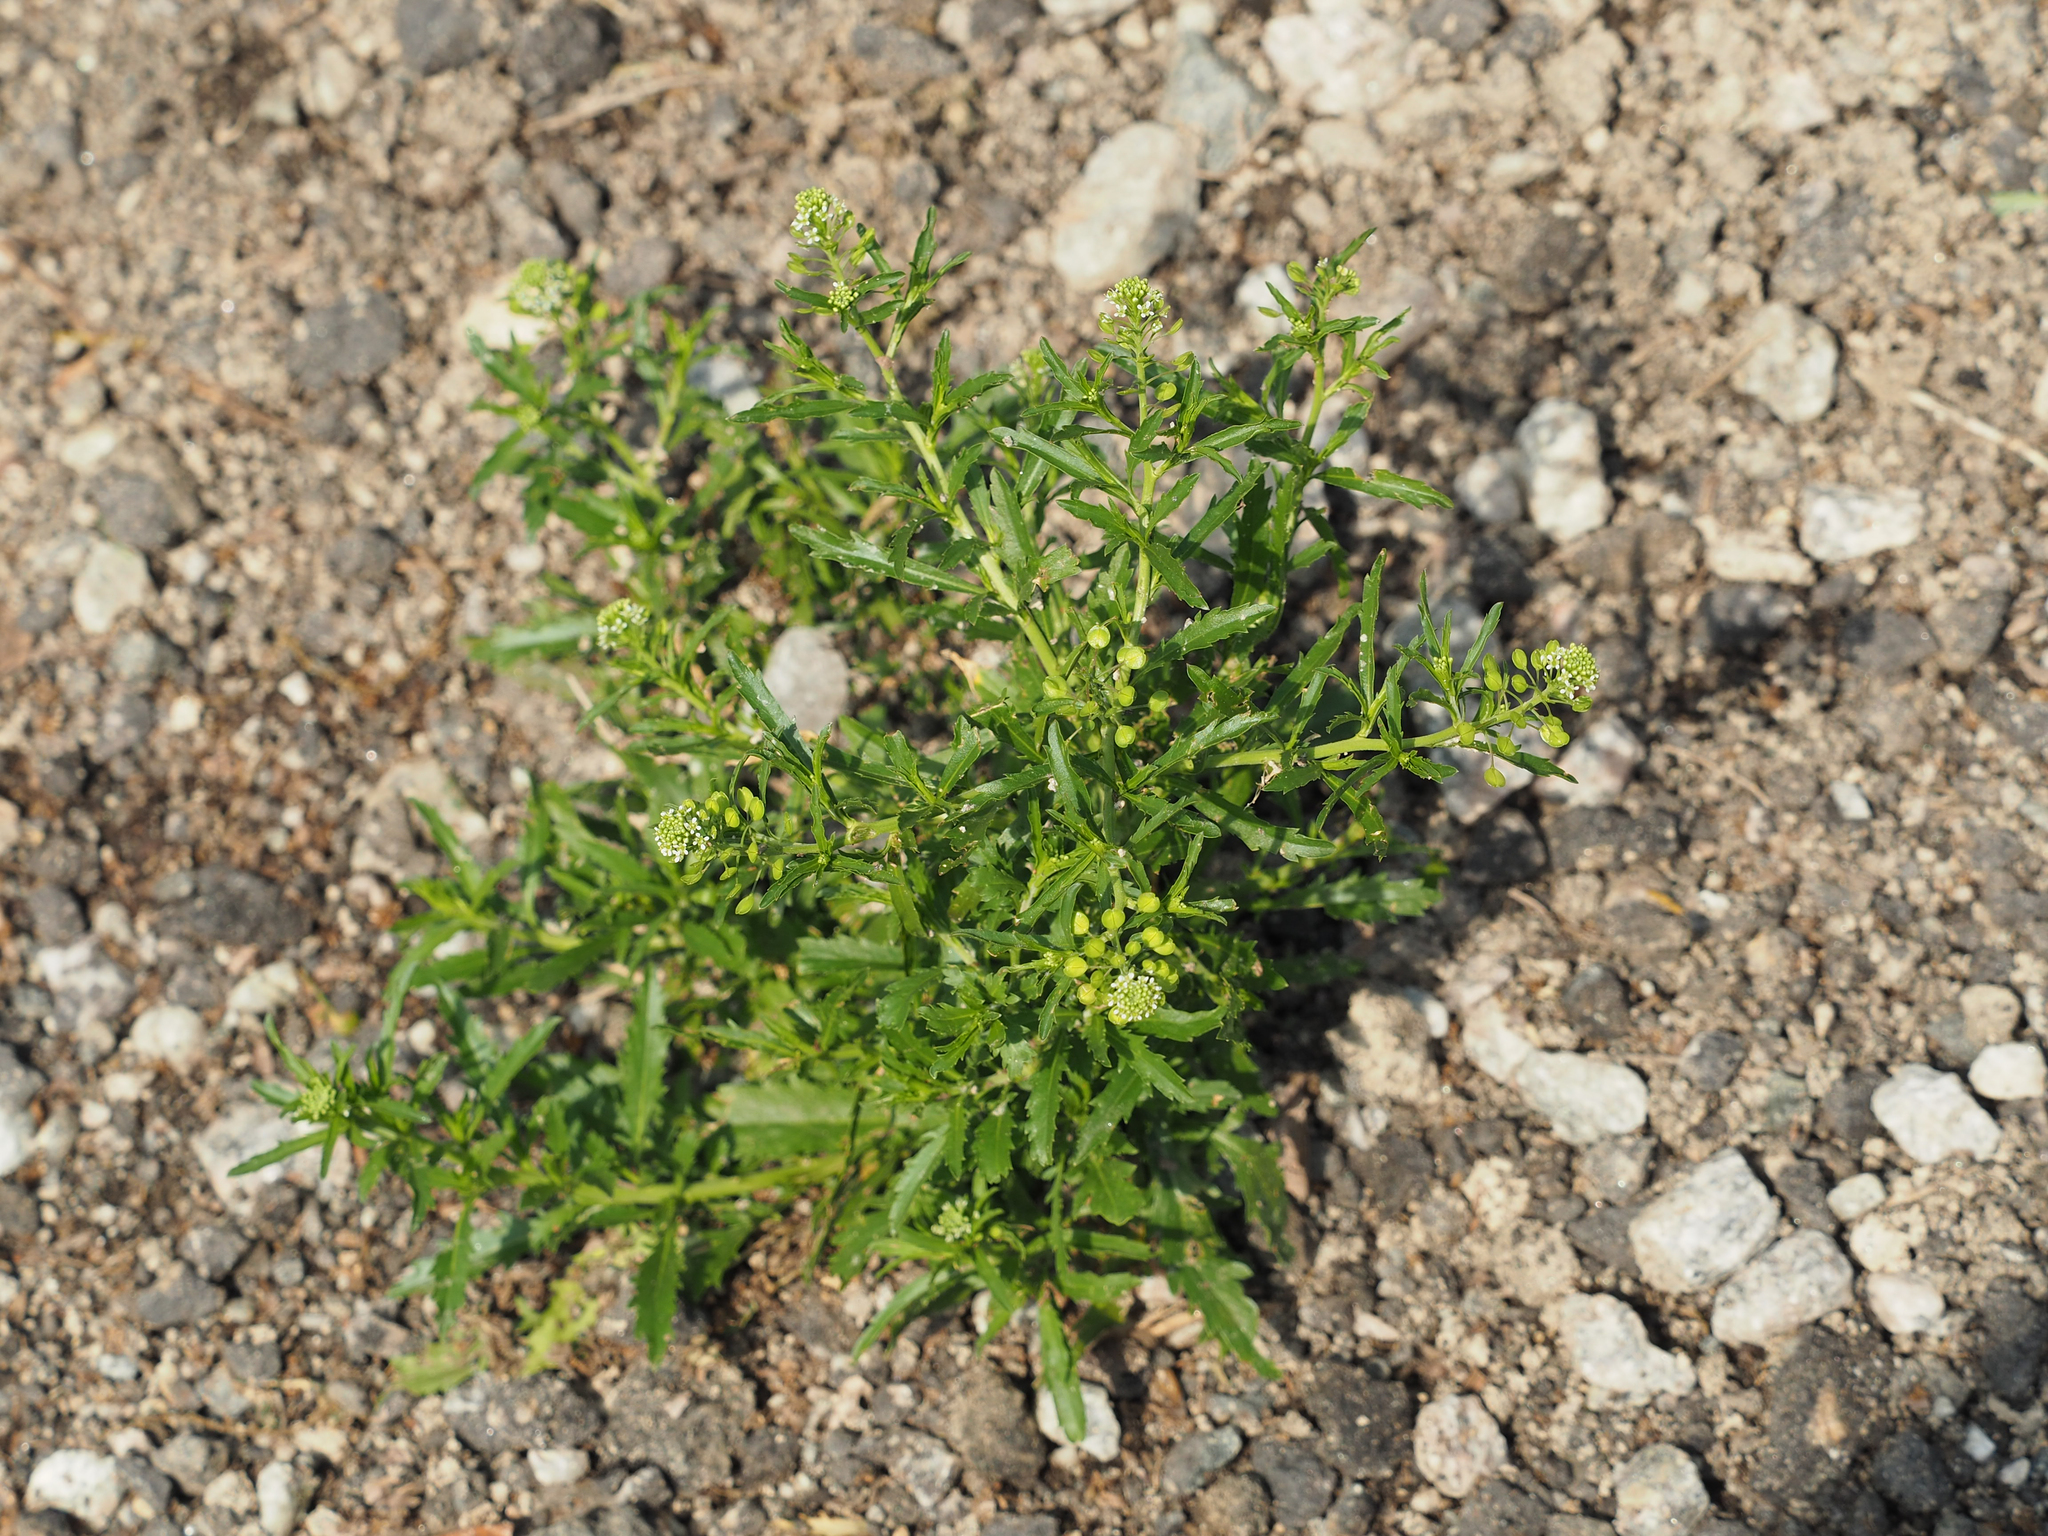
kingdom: Plantae
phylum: Tracheophyta
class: Magnoliopsida
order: Brassicales
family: Brassicaceae
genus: Lepidium
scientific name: Lepidium virginicum
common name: Least pepperwort
